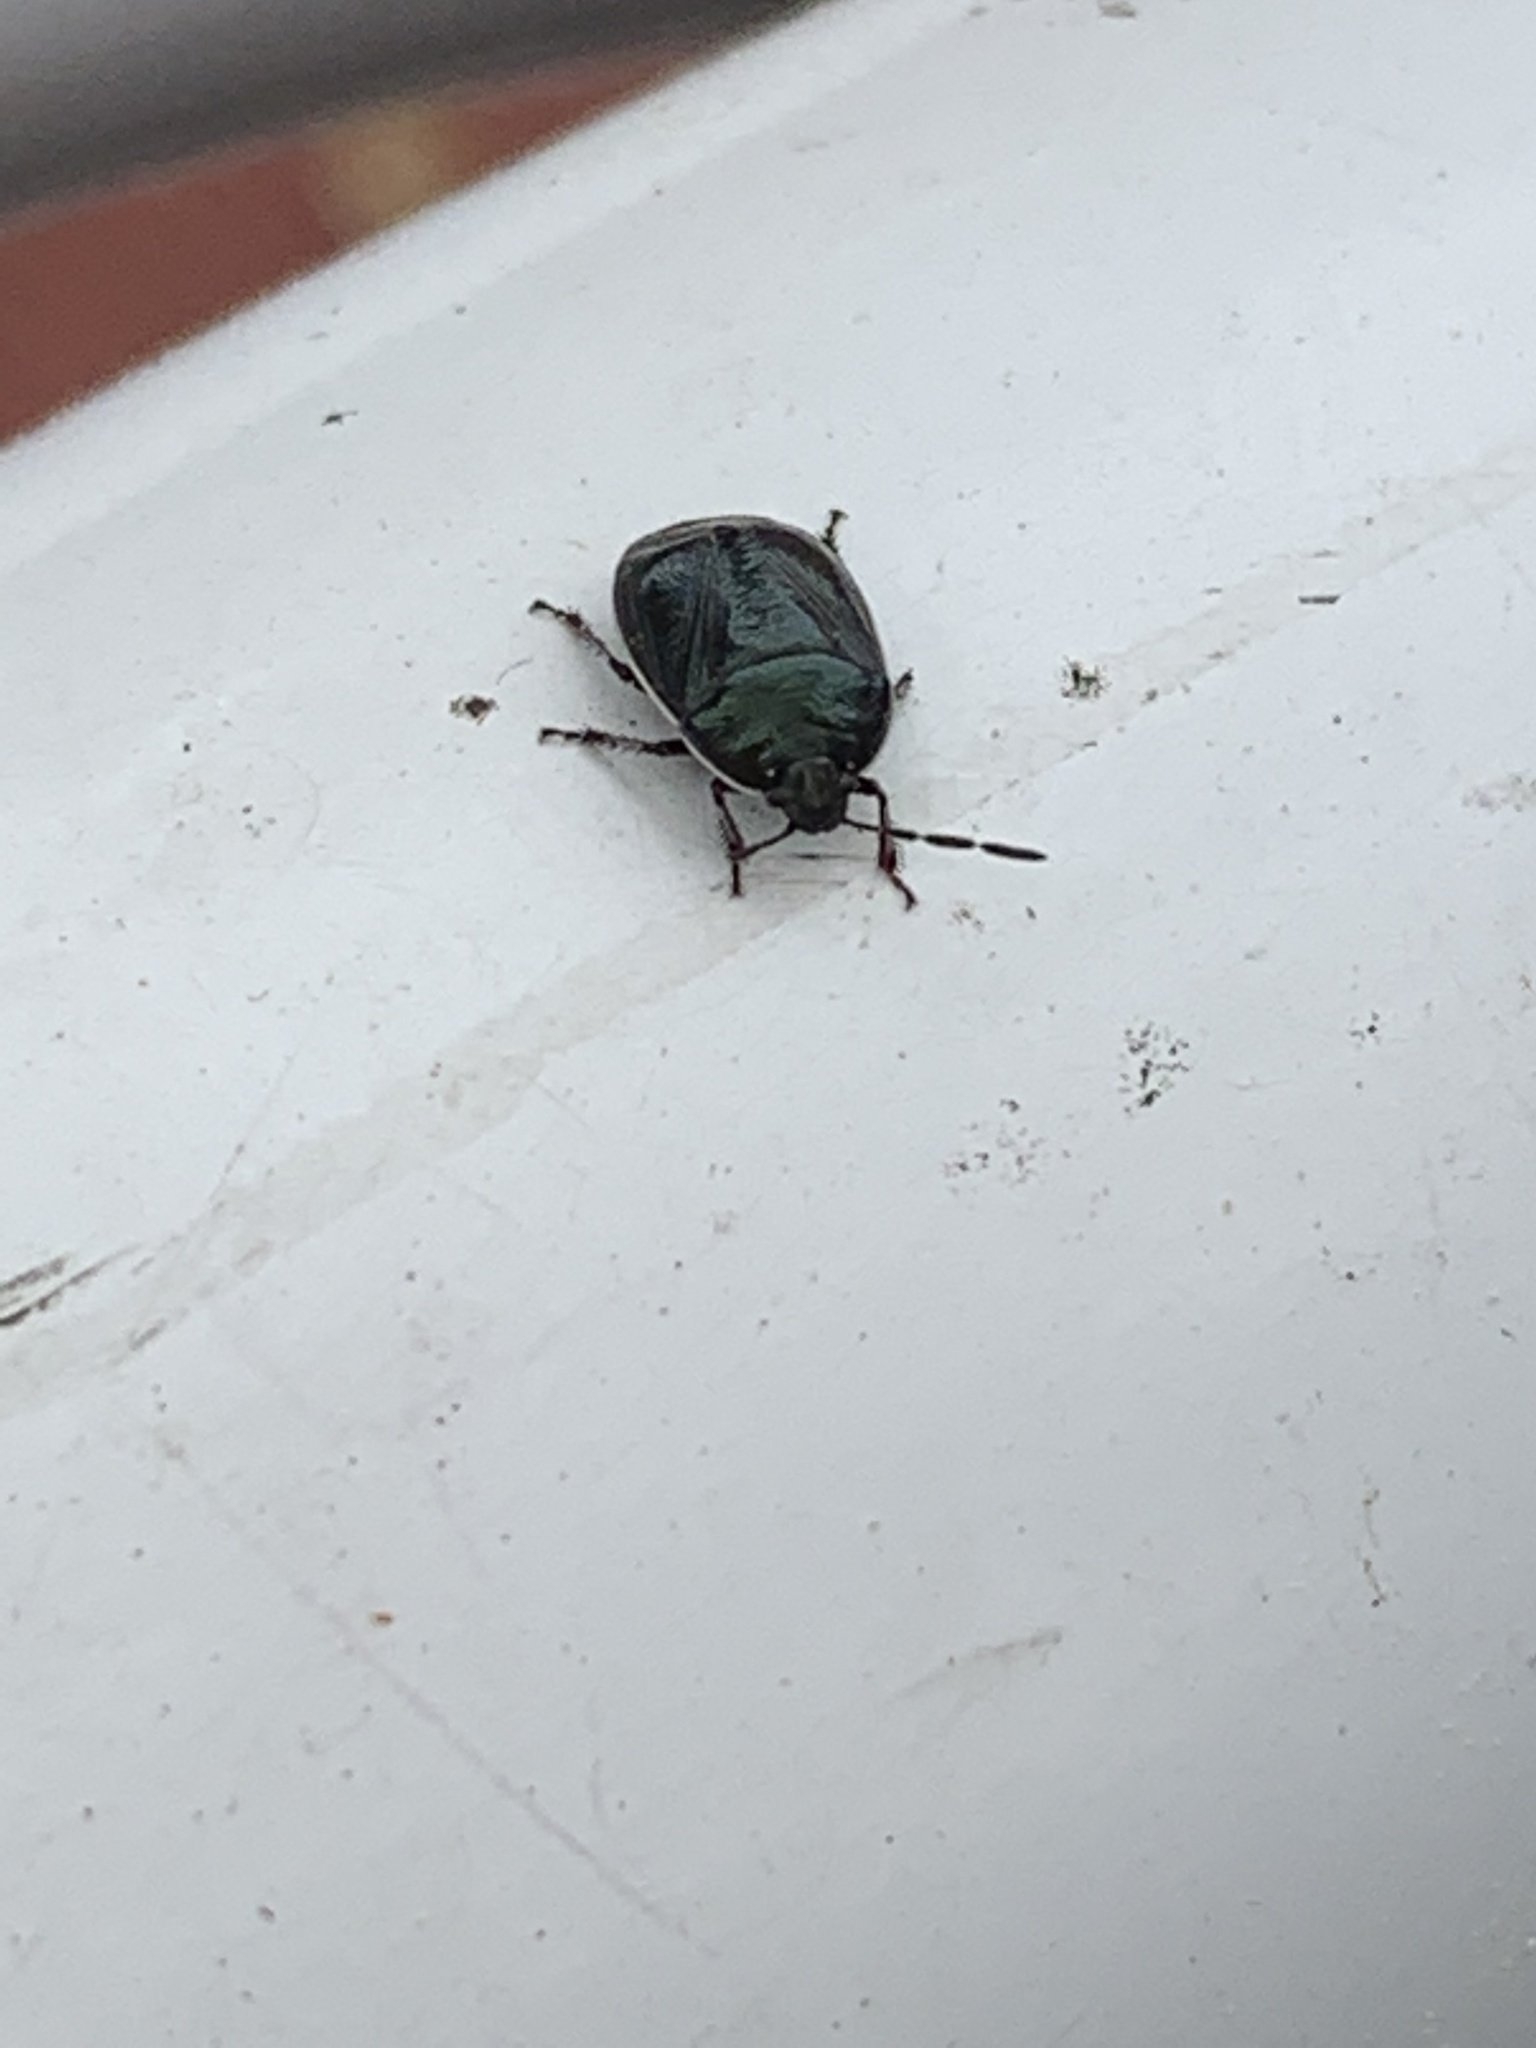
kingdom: Animalia
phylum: Arthropoda
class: Insecta
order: Hemiptera
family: Cydnidae
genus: Sehirus
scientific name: Sehirus cinctus
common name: White-margined burrower bug
